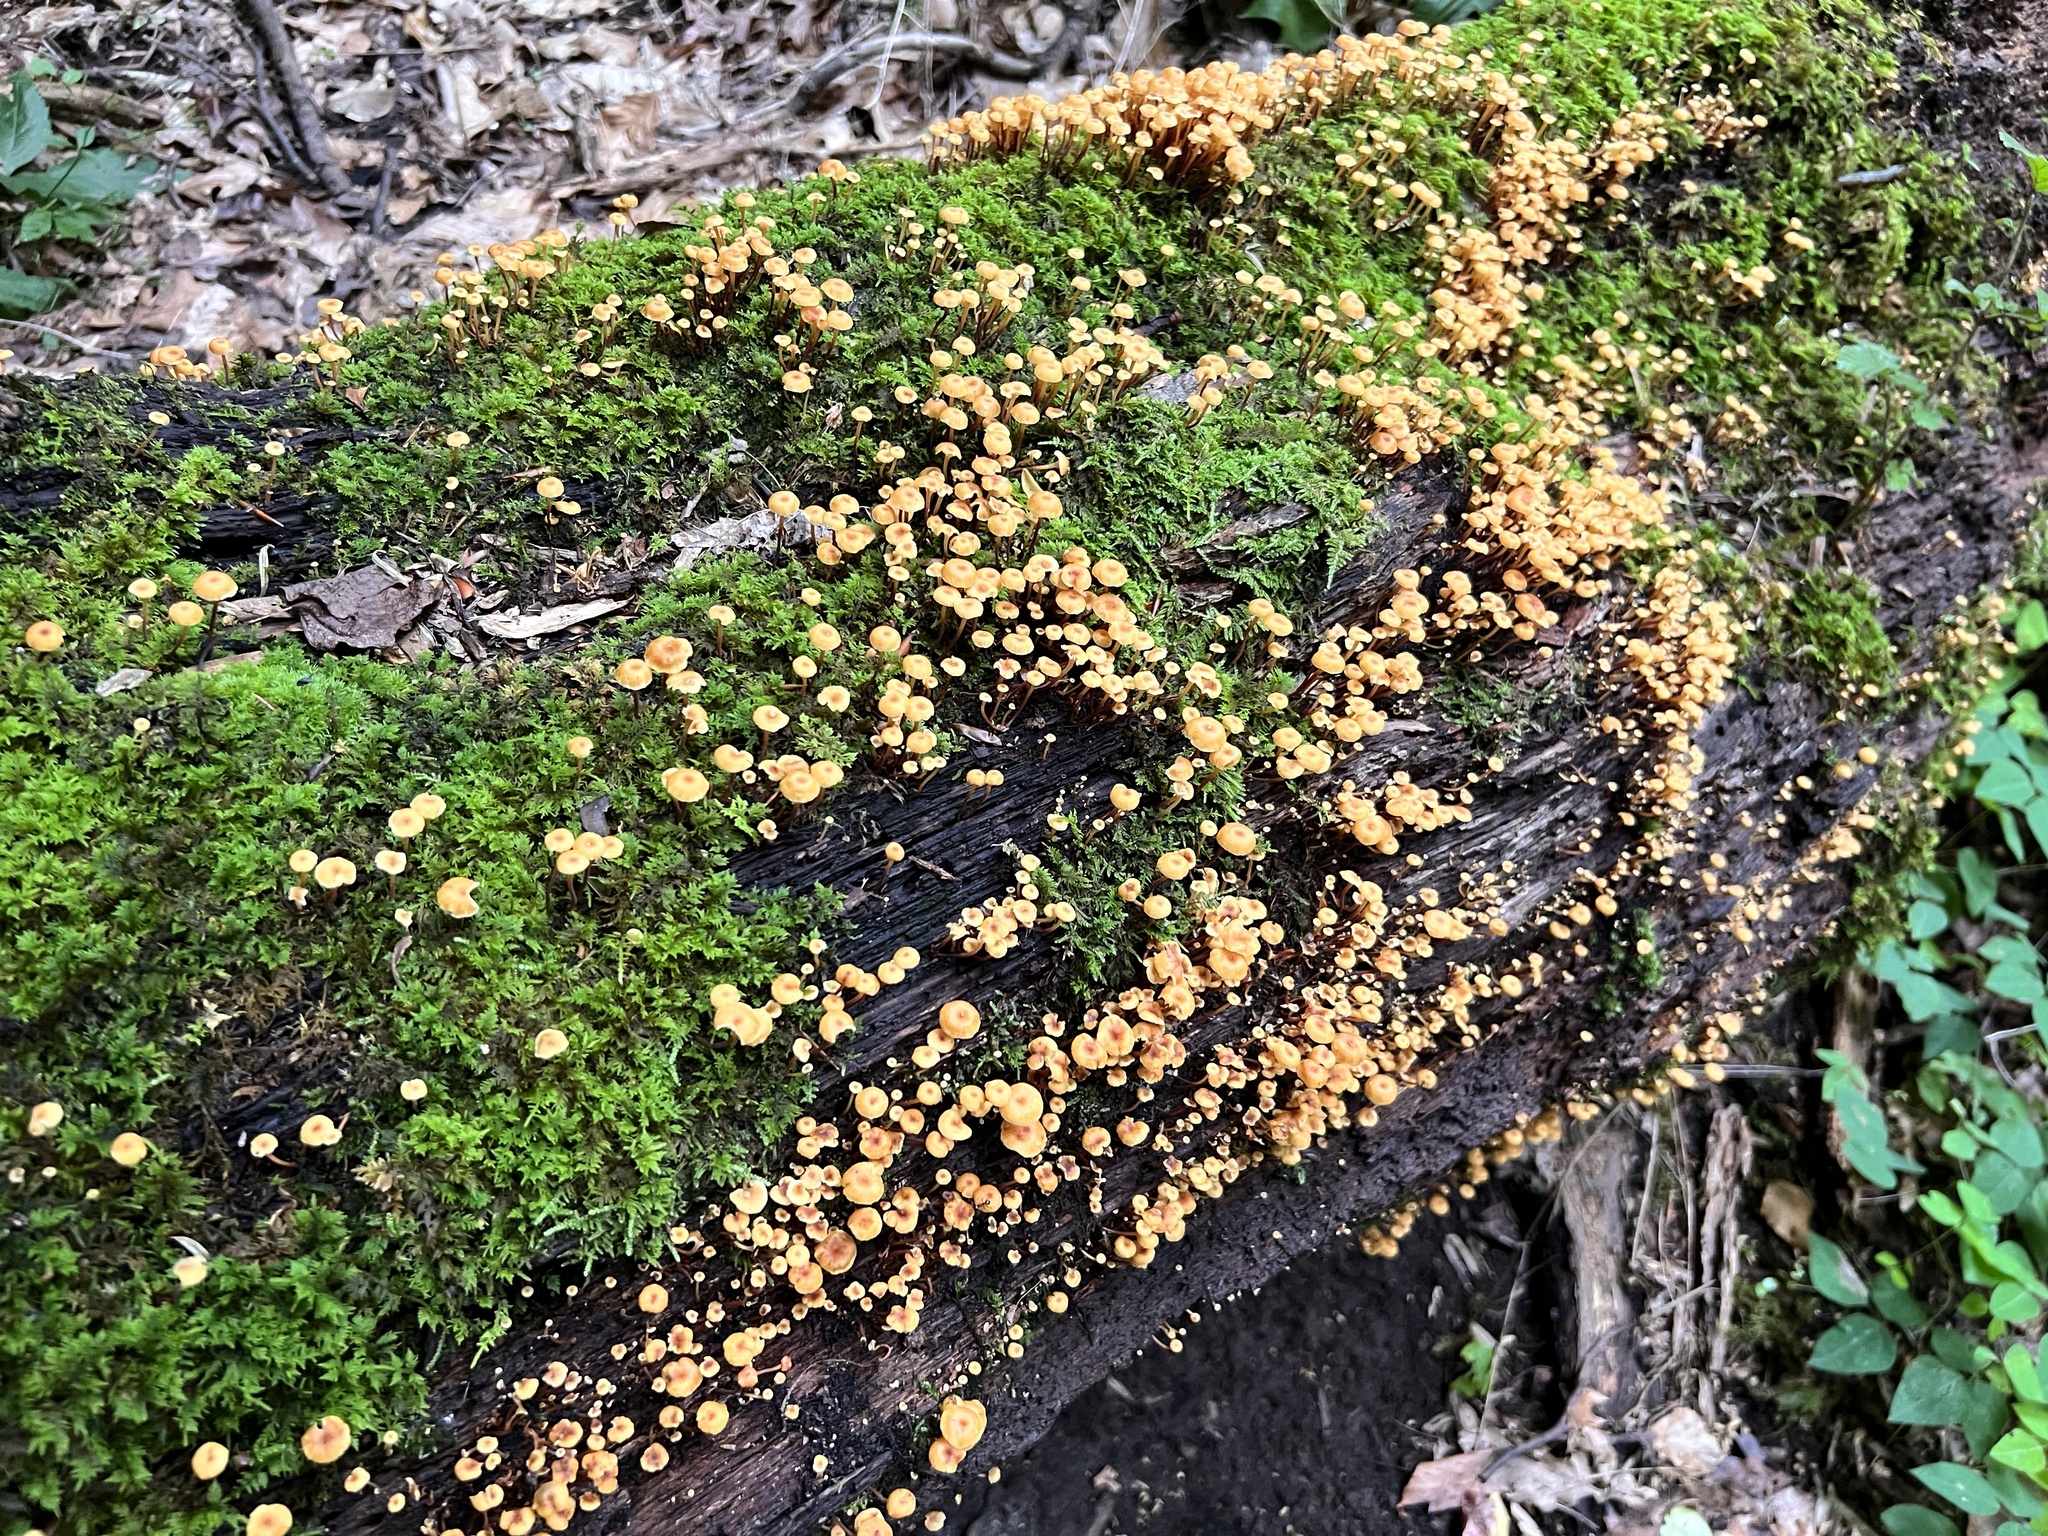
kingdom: Fungi
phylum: Basidiomycota
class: Agaricomycetes
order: Agaricales
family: Mycenaceae
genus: Xeromphalina
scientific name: Xeromphalina kauffmanii
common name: Cross-veined troop mushroom
